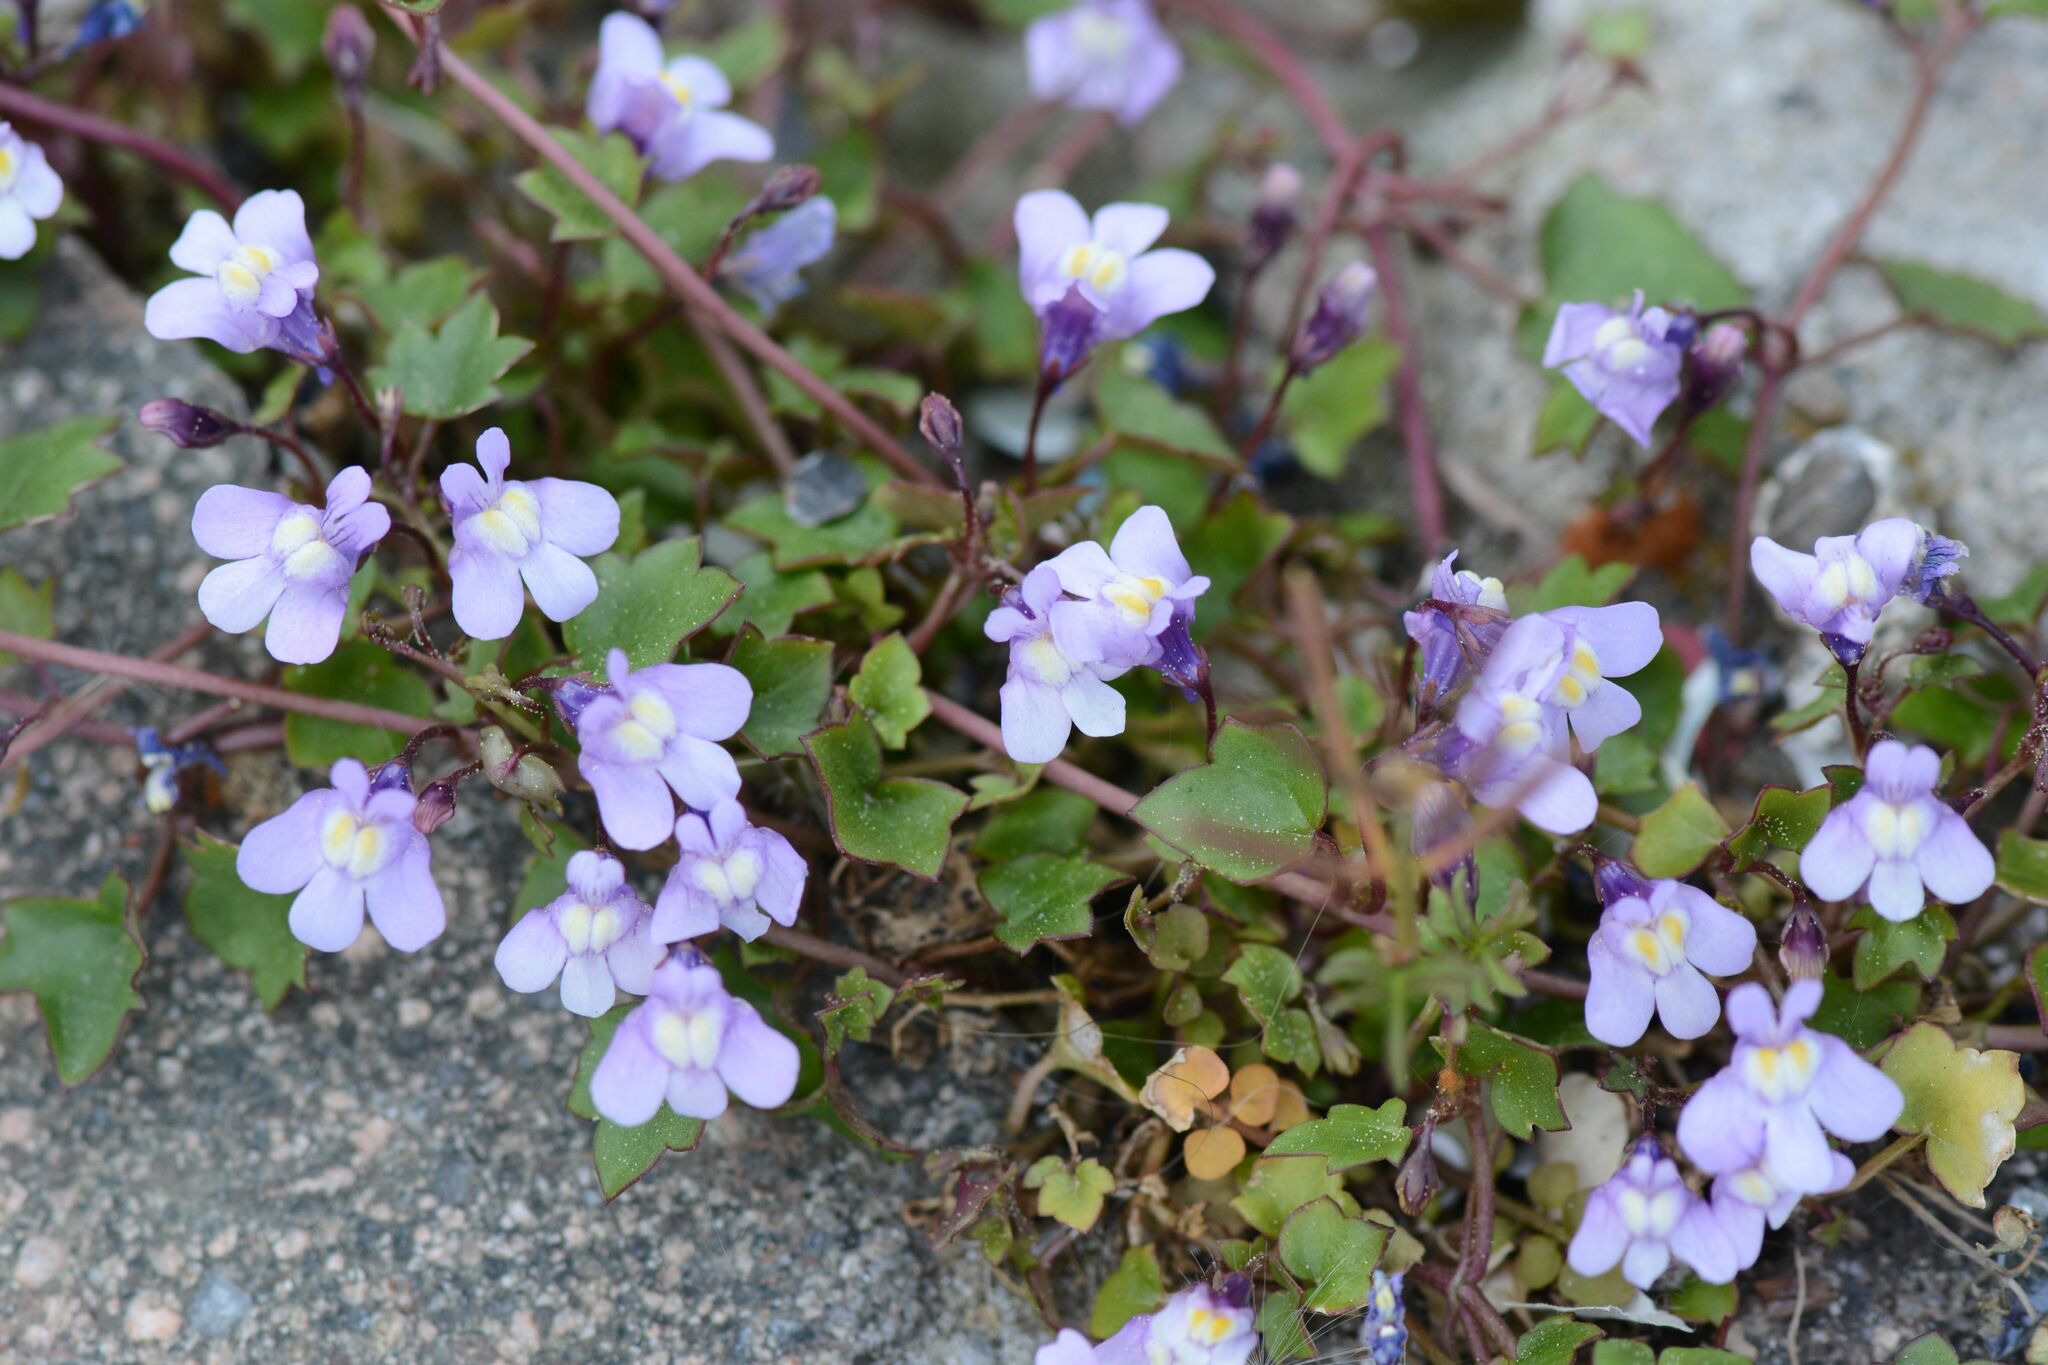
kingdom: Plantae
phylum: Tracheophyta
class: Magnoliopsida
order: Lamiales
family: Plantaginaceae
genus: Cymbalaria
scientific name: Cymbalaria muralis
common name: Ivy-leaved toadflax
